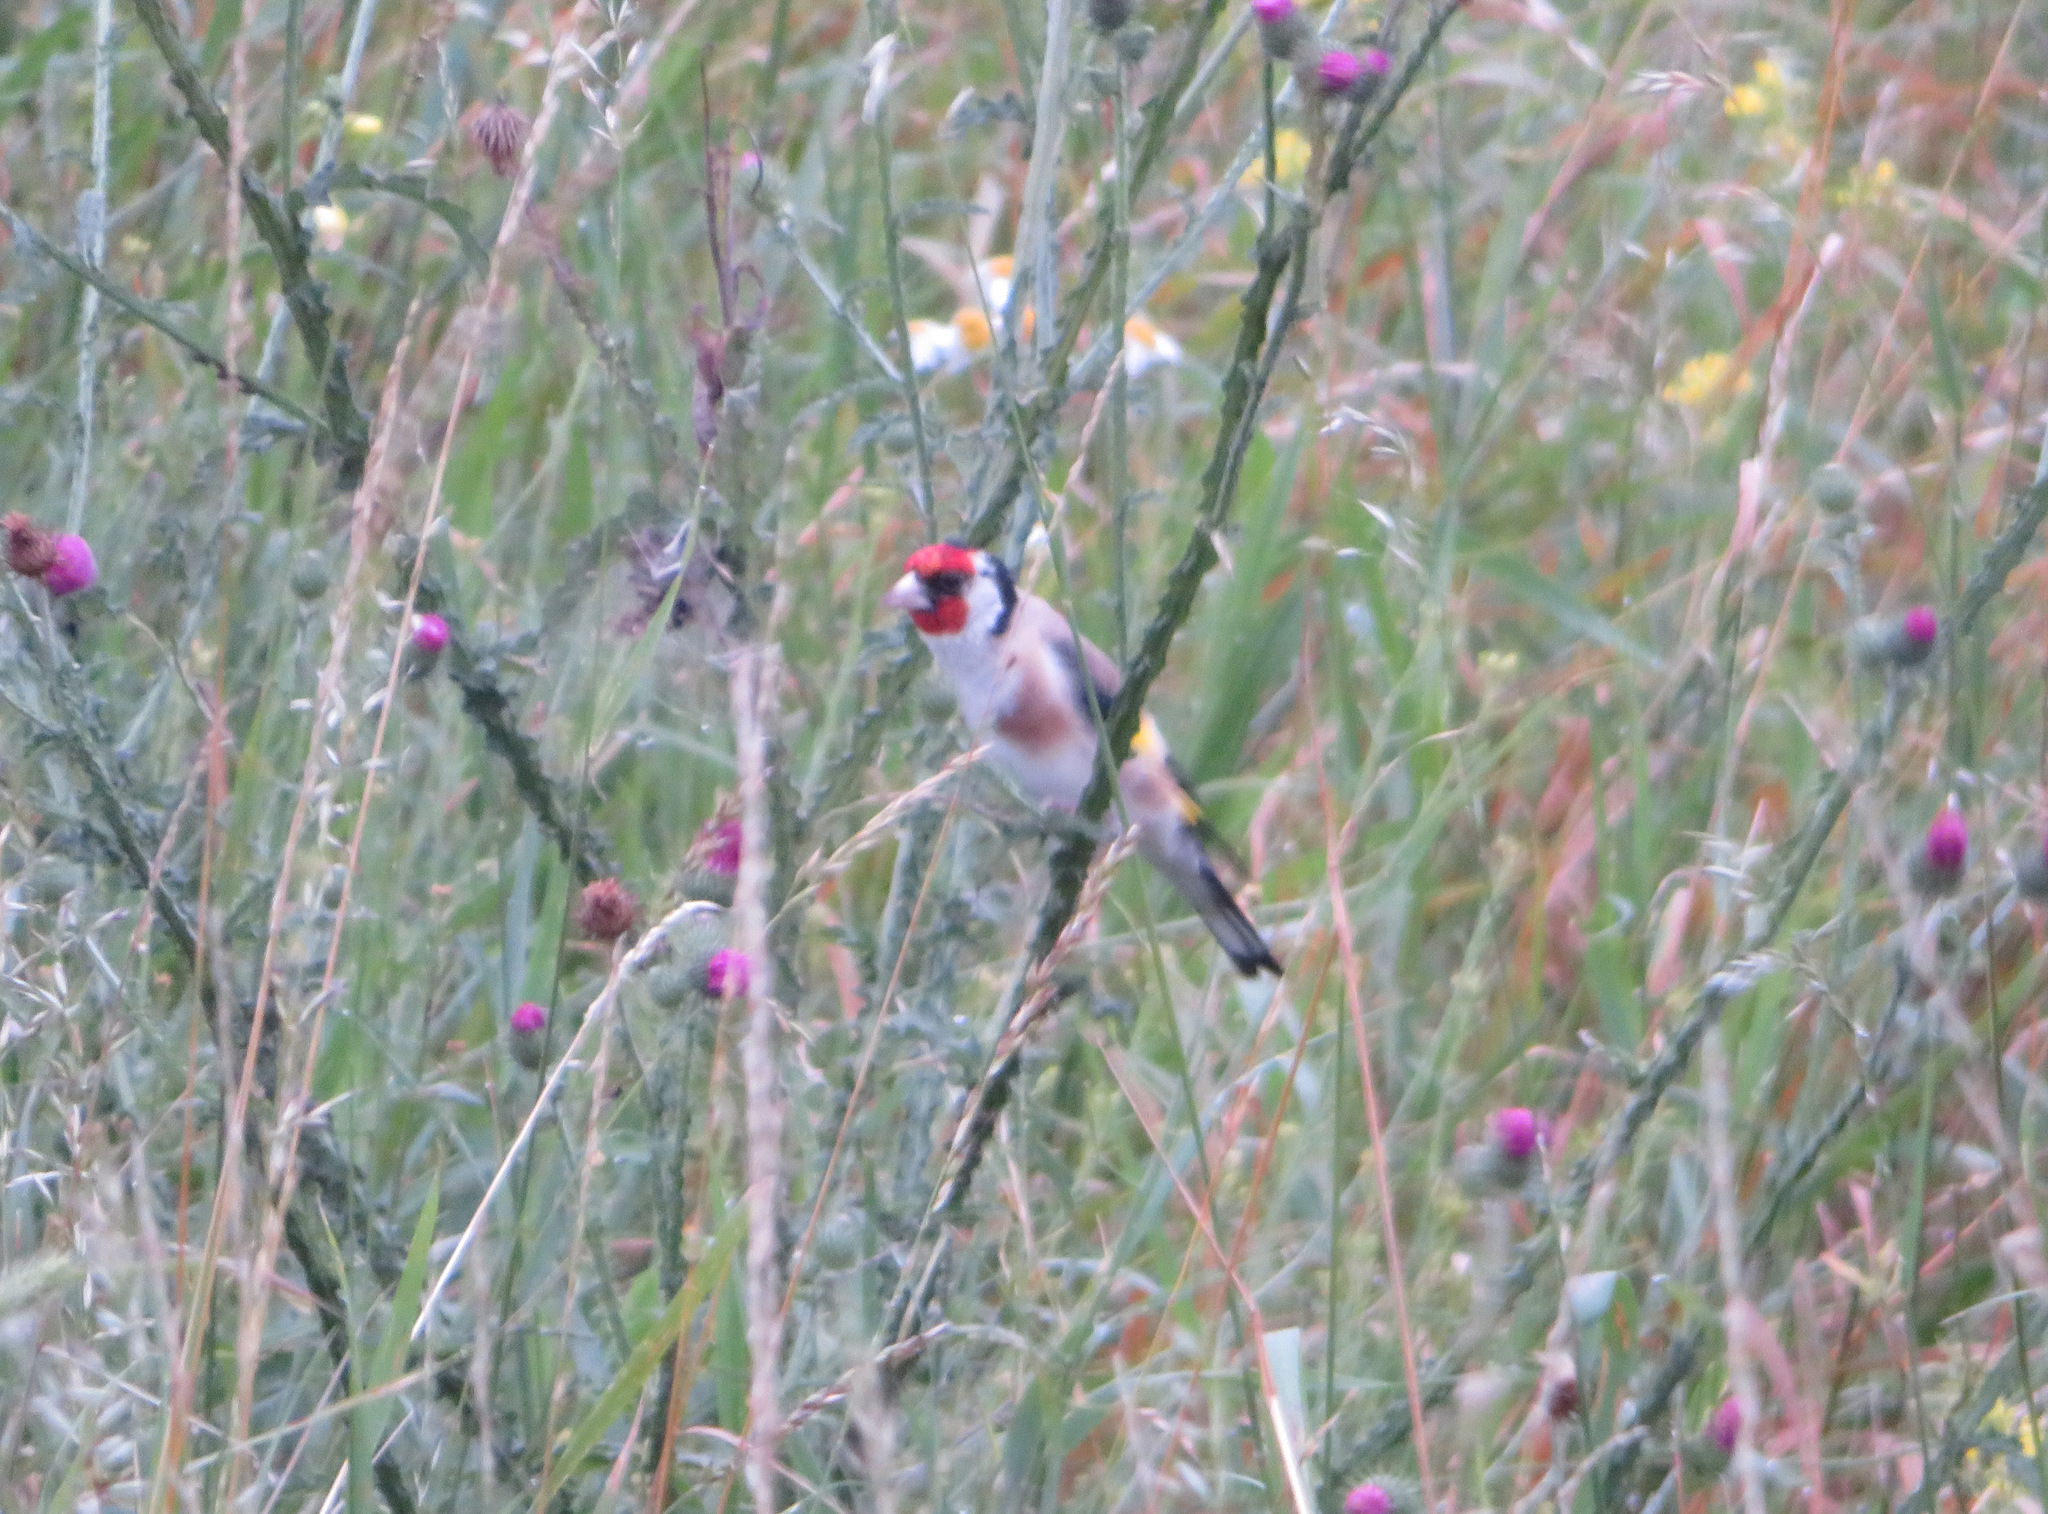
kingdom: Animalia
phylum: Chordata
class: Aves
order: Passeriformes
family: Fringillidae
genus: Carduelis
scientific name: Carduelis carduelis
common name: European goldfinch
